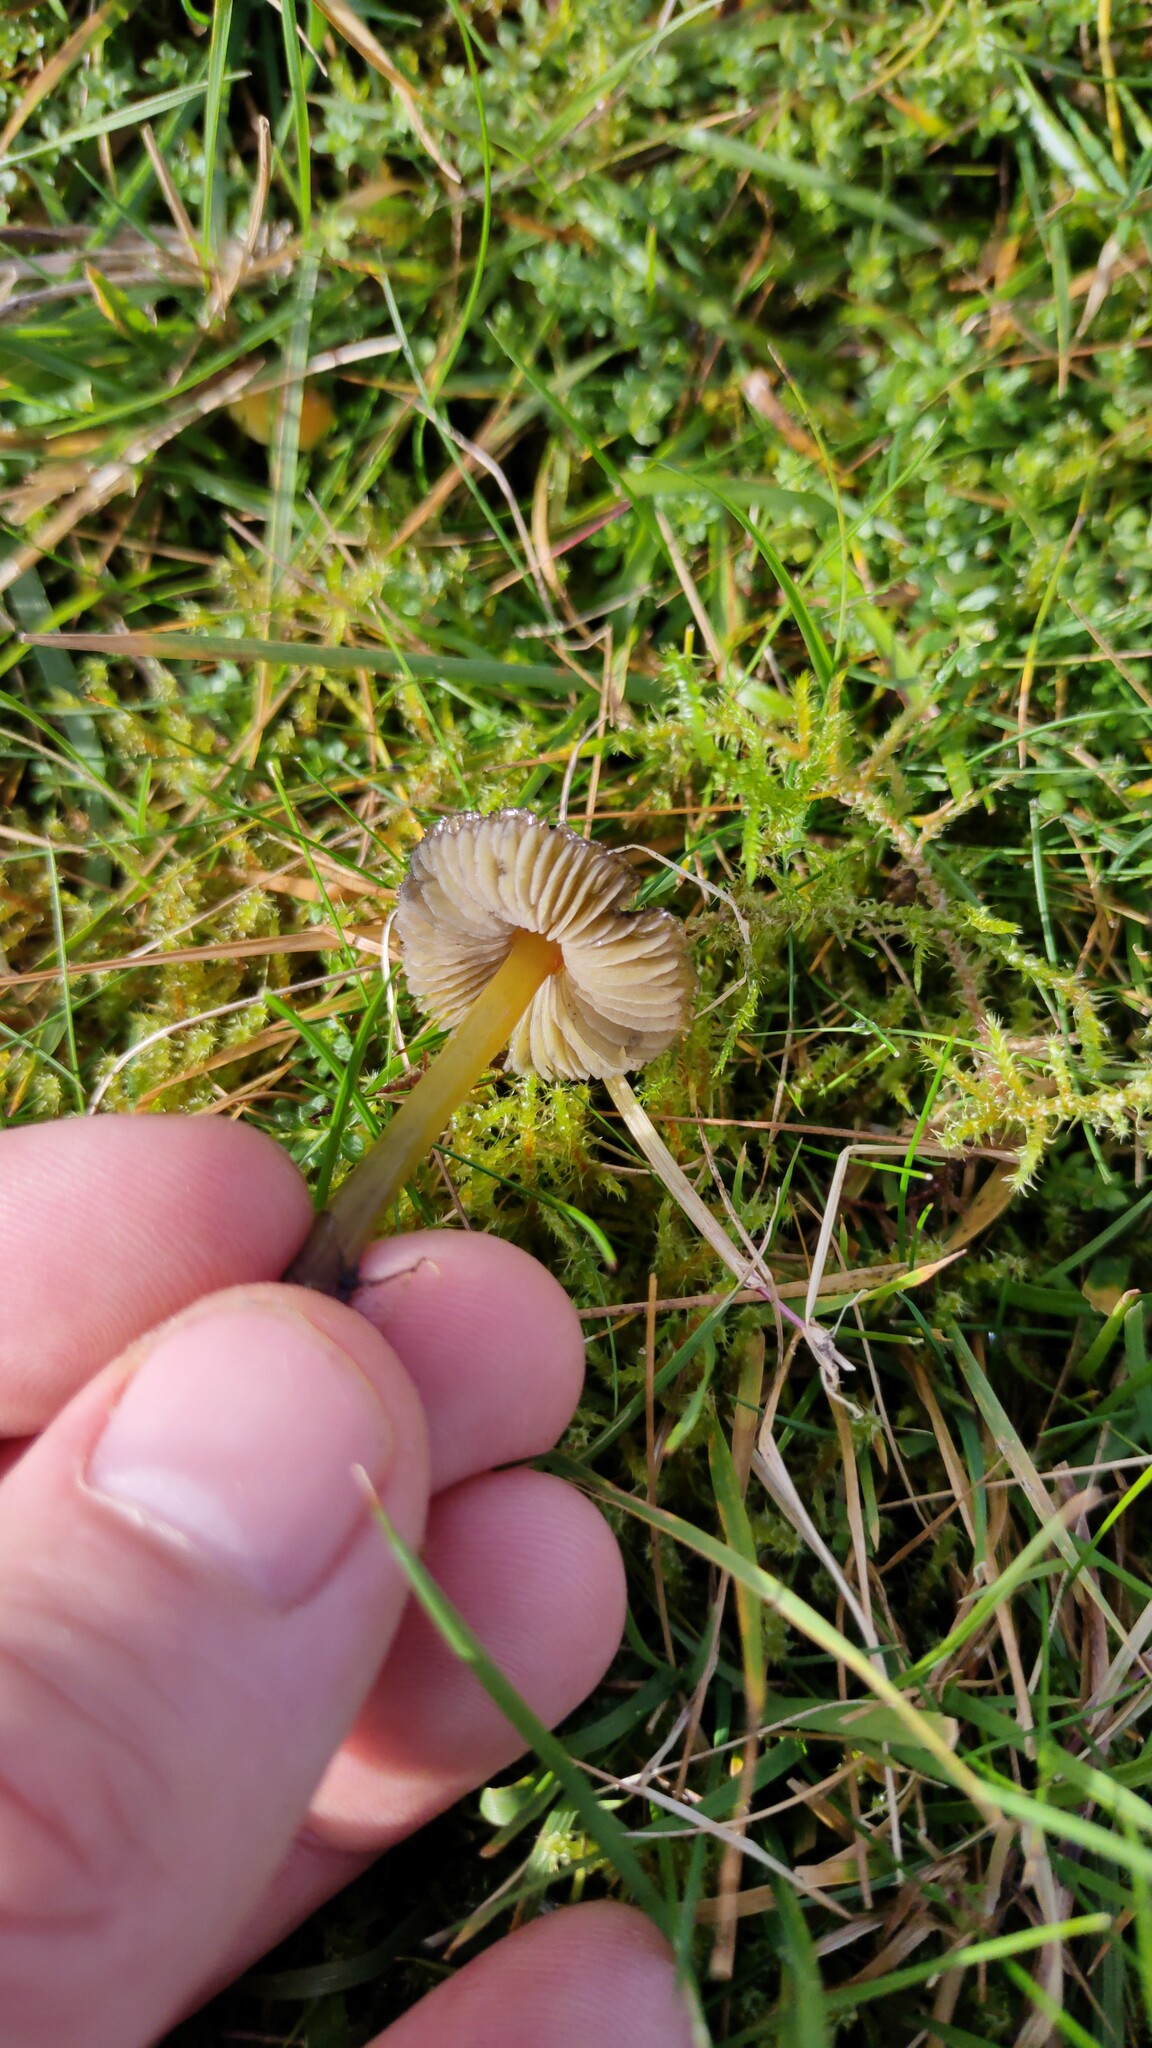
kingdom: Fungi
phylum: Basidiomycota
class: Agaricomycetes
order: Agaricales
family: Hygrophoraceae
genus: Hygrocybe
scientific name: Hygrocybe conica
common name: Blackening wax-cap
